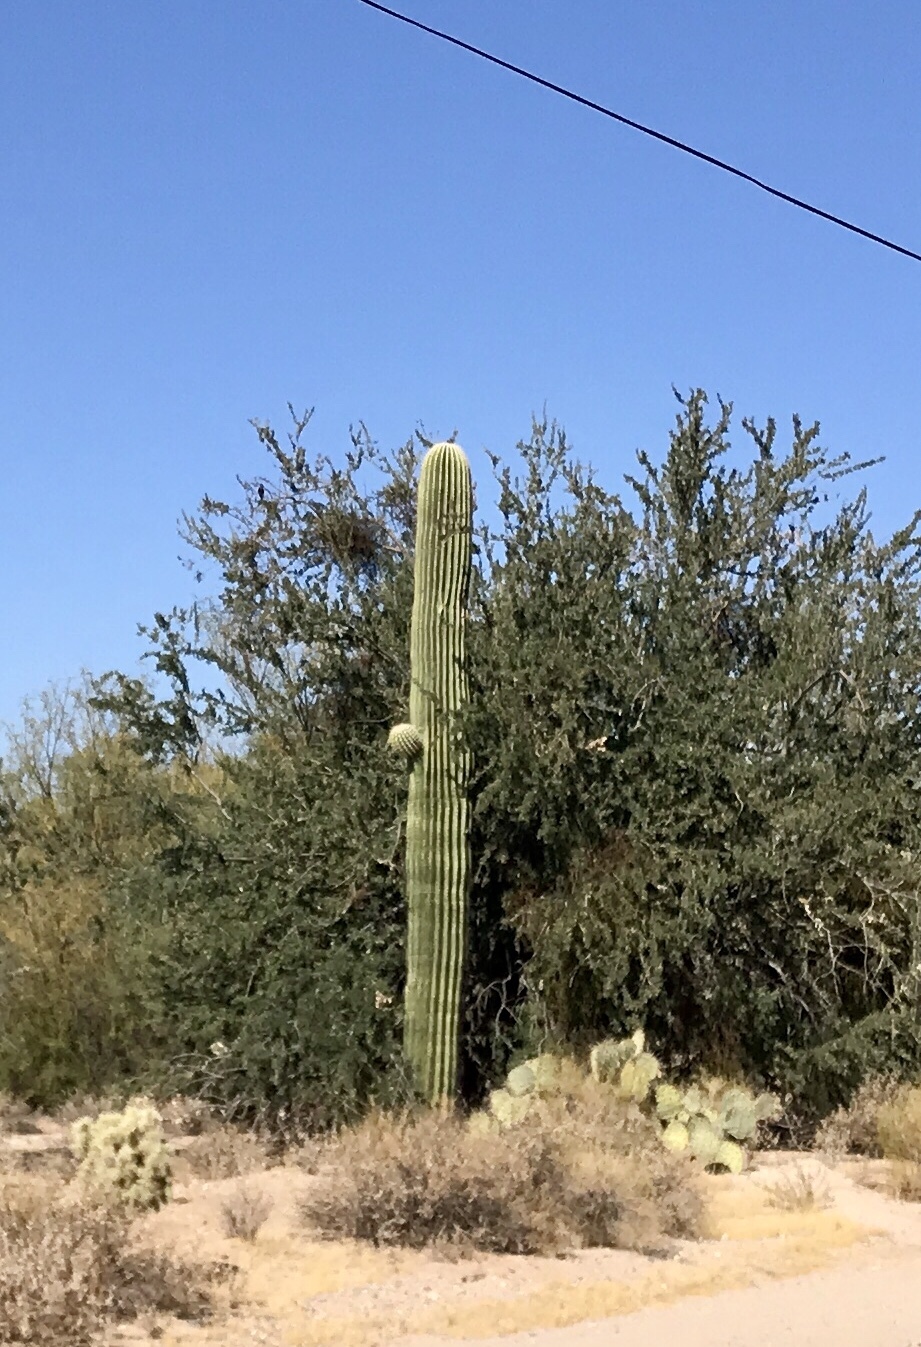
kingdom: Plantae
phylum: Tracheophyta
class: Magnoliopsida
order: Caryophyllales
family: Cactaceae
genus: Carnegiea
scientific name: Carnegiea gigantea
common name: Saguaro
